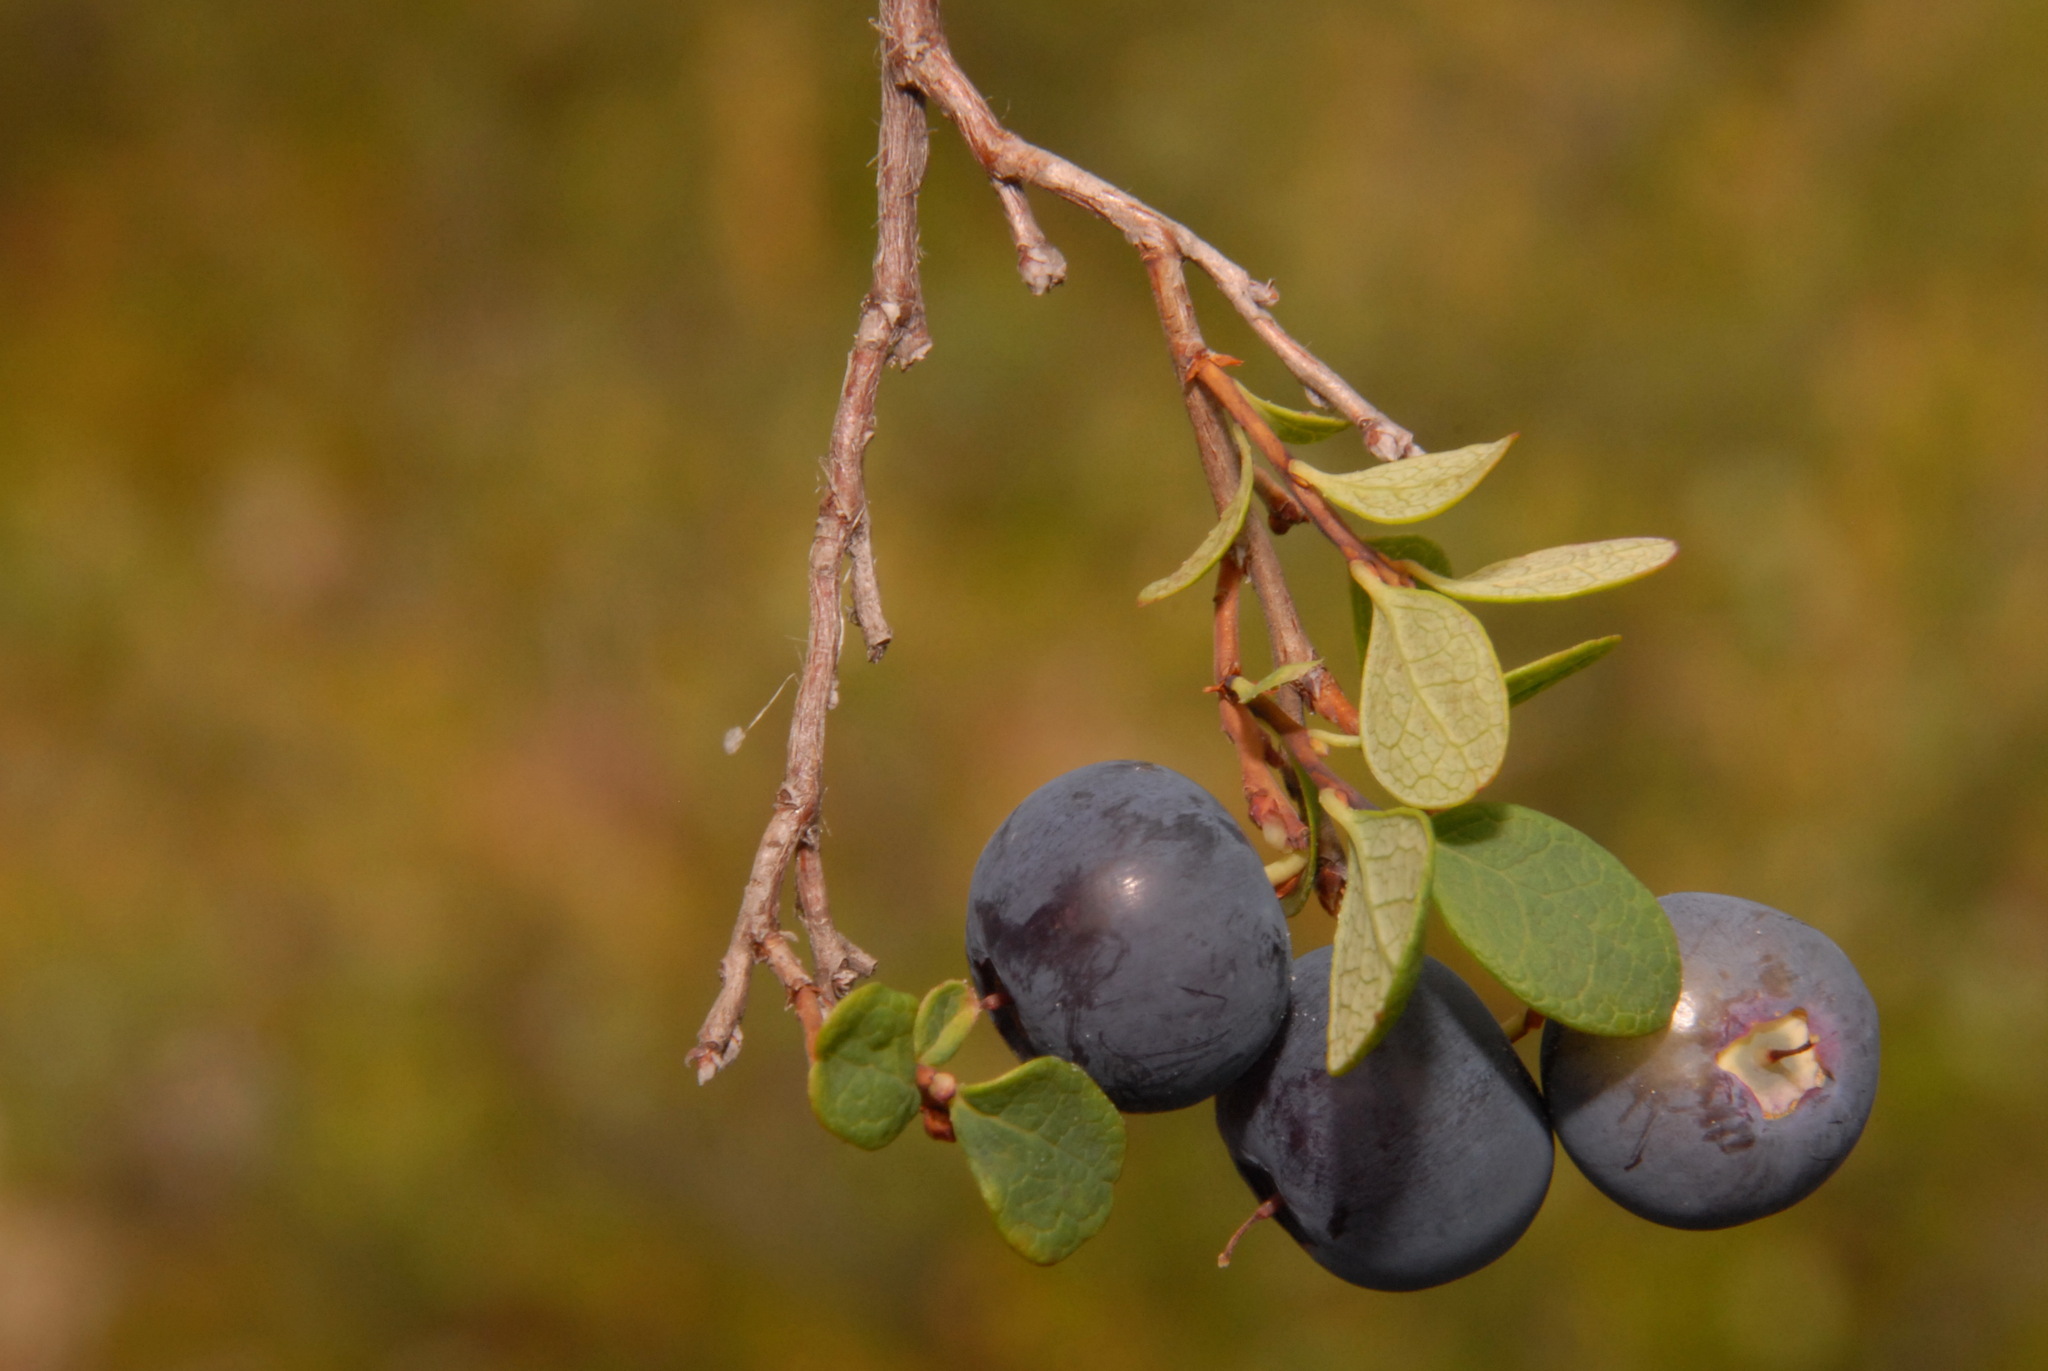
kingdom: Plantae
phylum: Tracheophyta
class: Magnoliopsida
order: Ericales
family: Ericaceae
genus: Vaccinium
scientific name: Vaccinium uliginosum
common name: Bog bilberry
